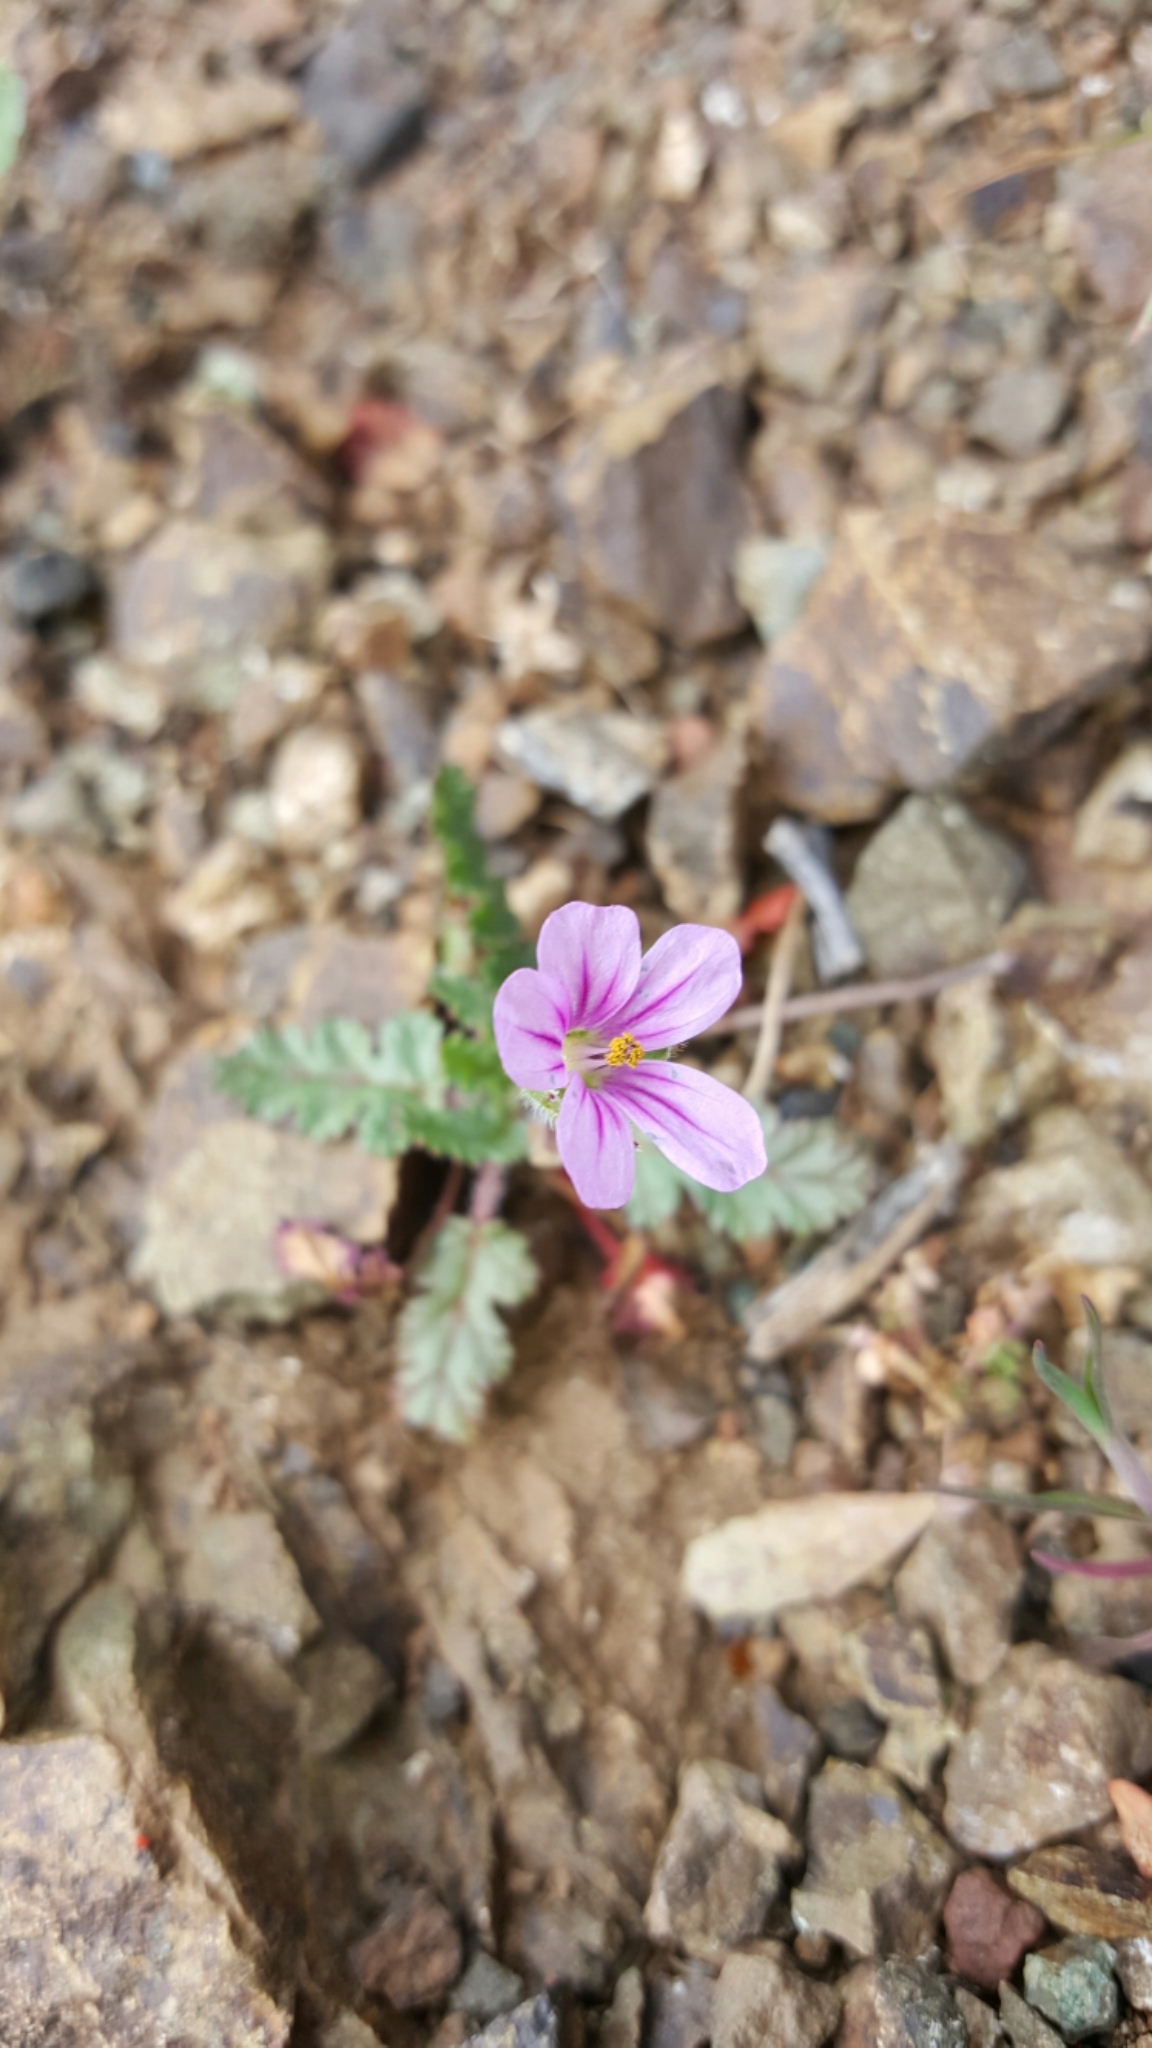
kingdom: Plantae
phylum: Tracheophyta
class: Magnoliopsida
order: Geraniales
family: Geraniaceae
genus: Erodium
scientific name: Erodium botrys
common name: Mediterranean stork's-bill
